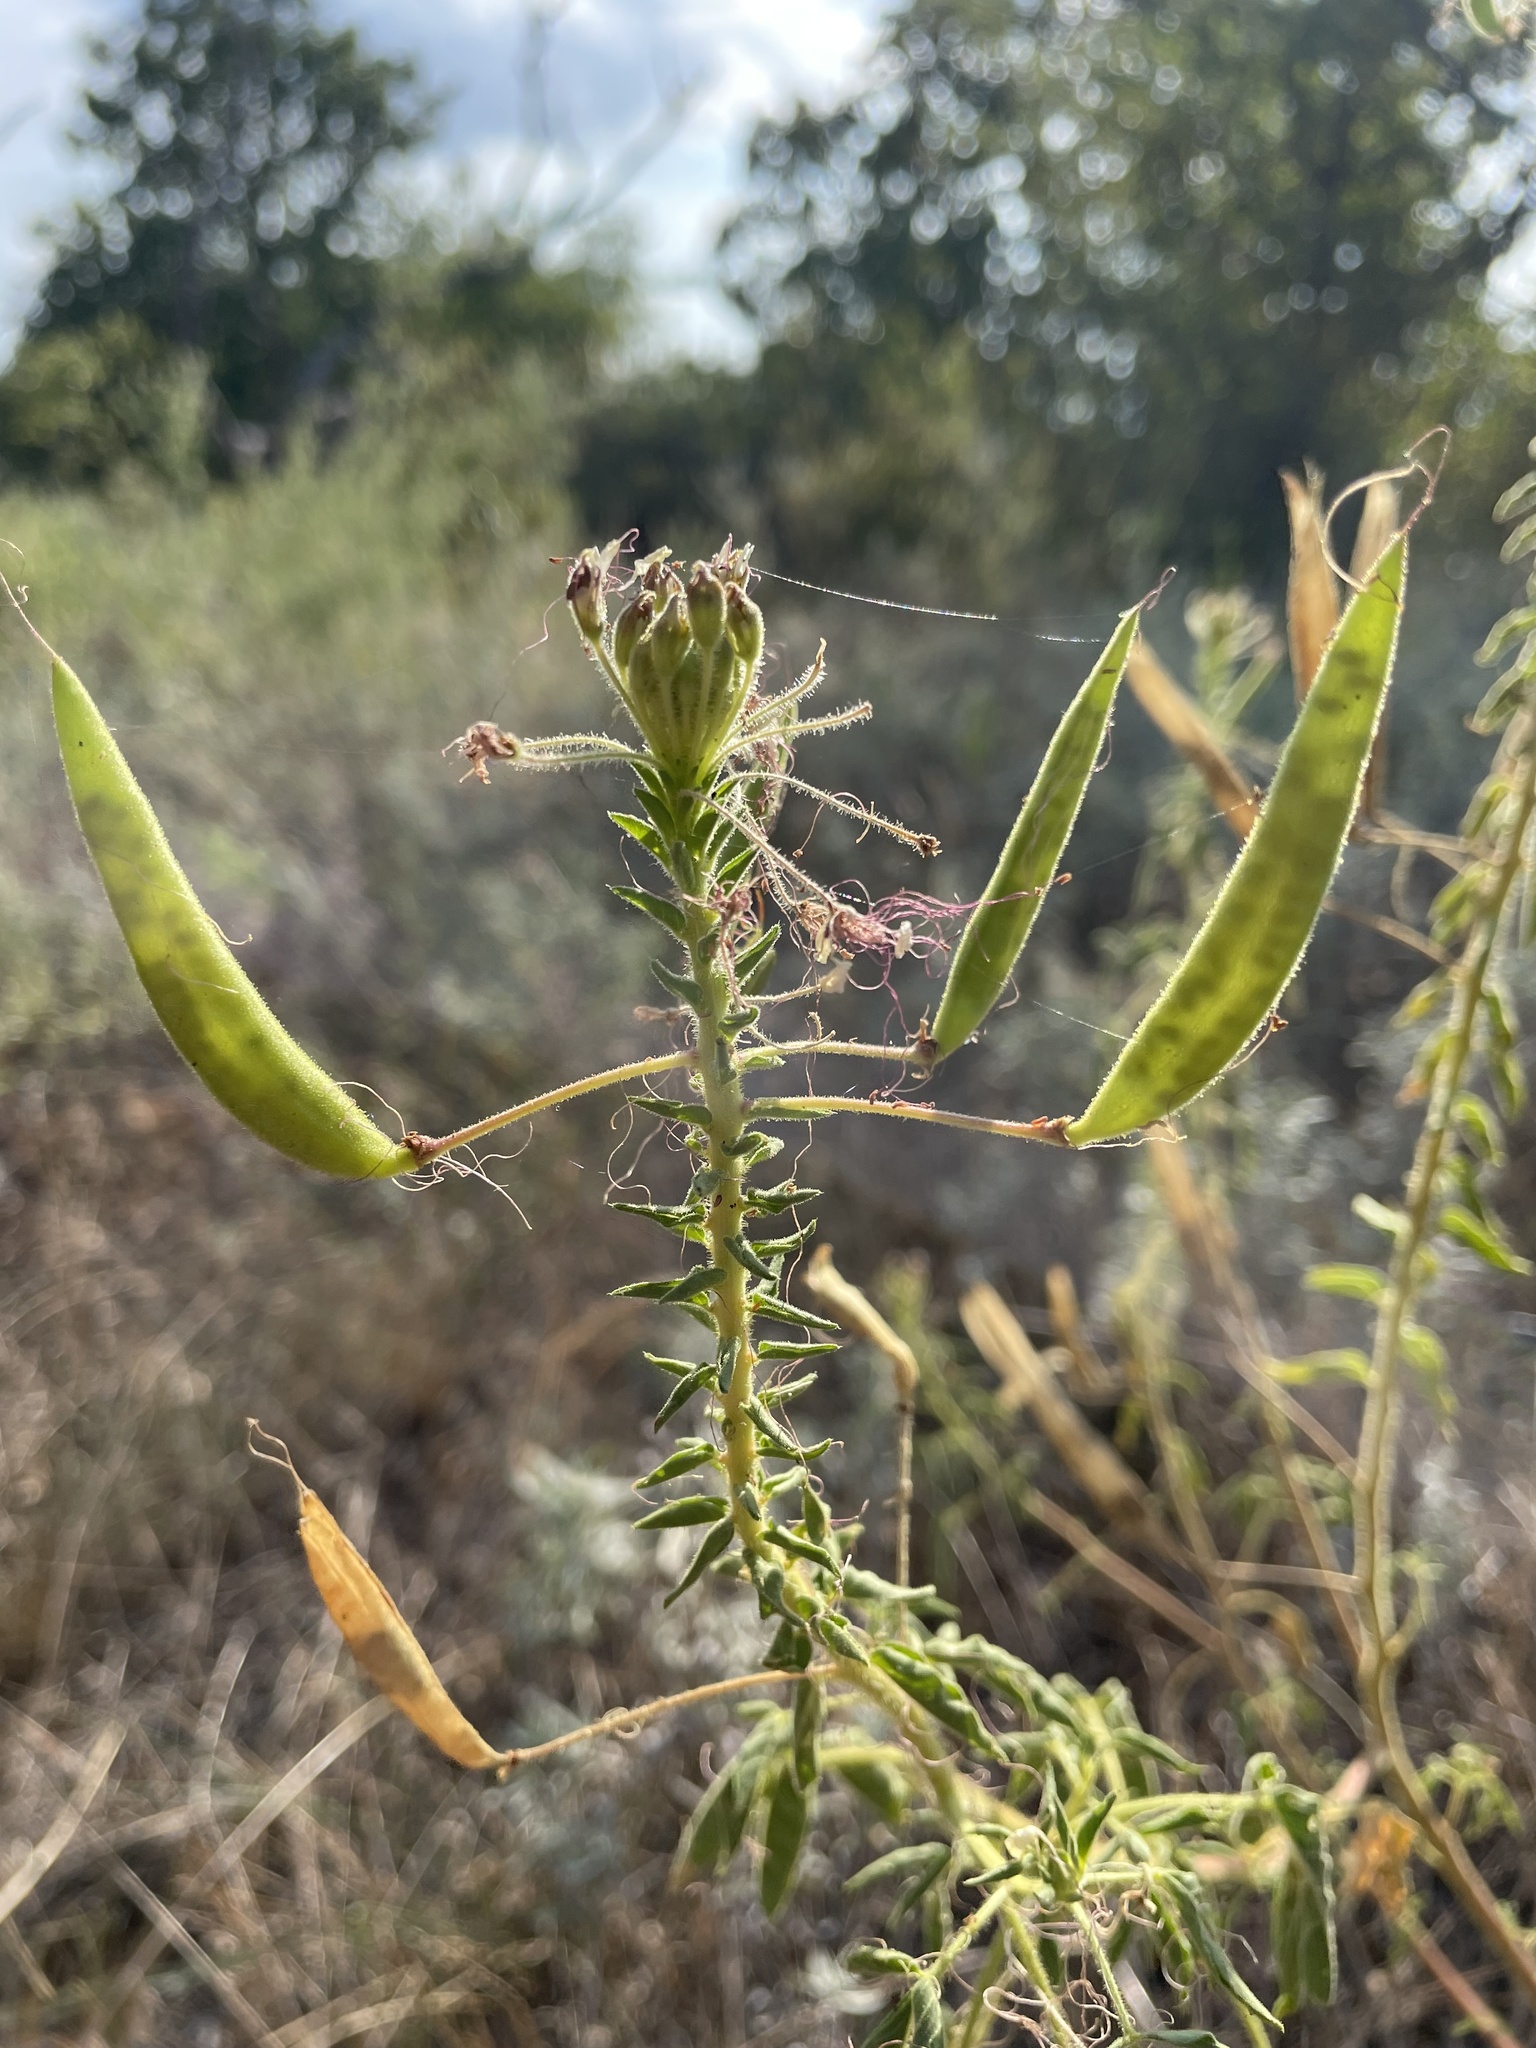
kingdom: Plantae
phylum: Tracheophyta
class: Magnoliopsida
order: Brassicales
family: Cleomaceae
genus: Polanisia
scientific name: Polanisia dodecandra
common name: Clammyweed
